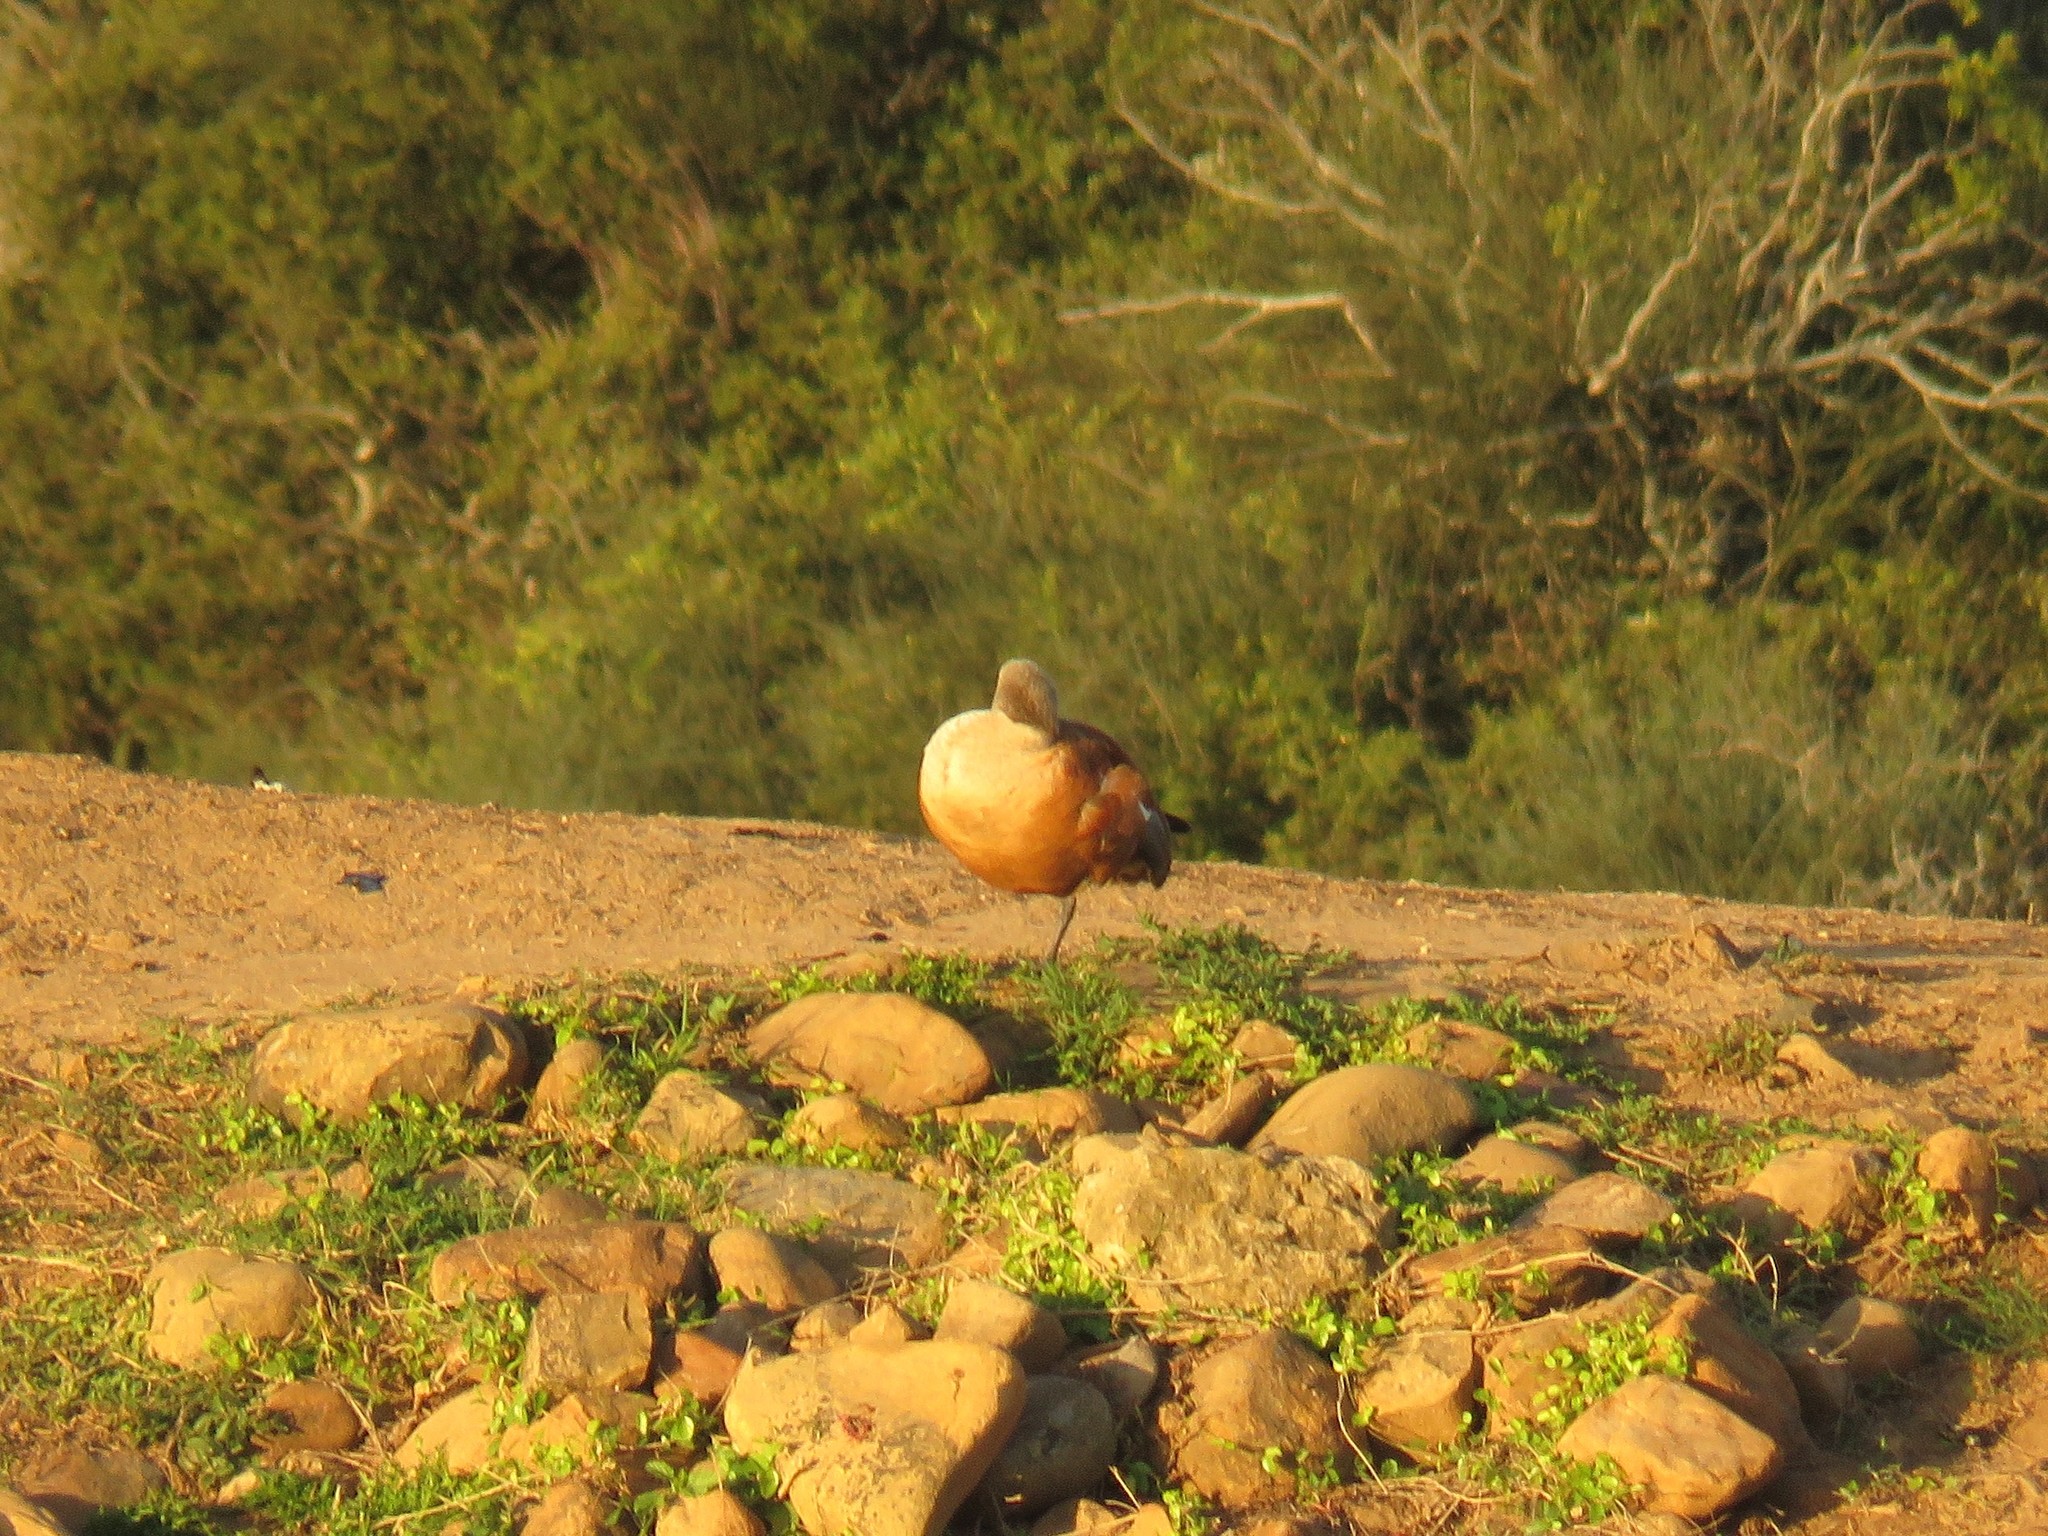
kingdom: Animalia
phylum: Chordata
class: Aves
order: Anseriformes
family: Anatidae
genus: Tadorna
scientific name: Tadorna cana
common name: South african shelduck
